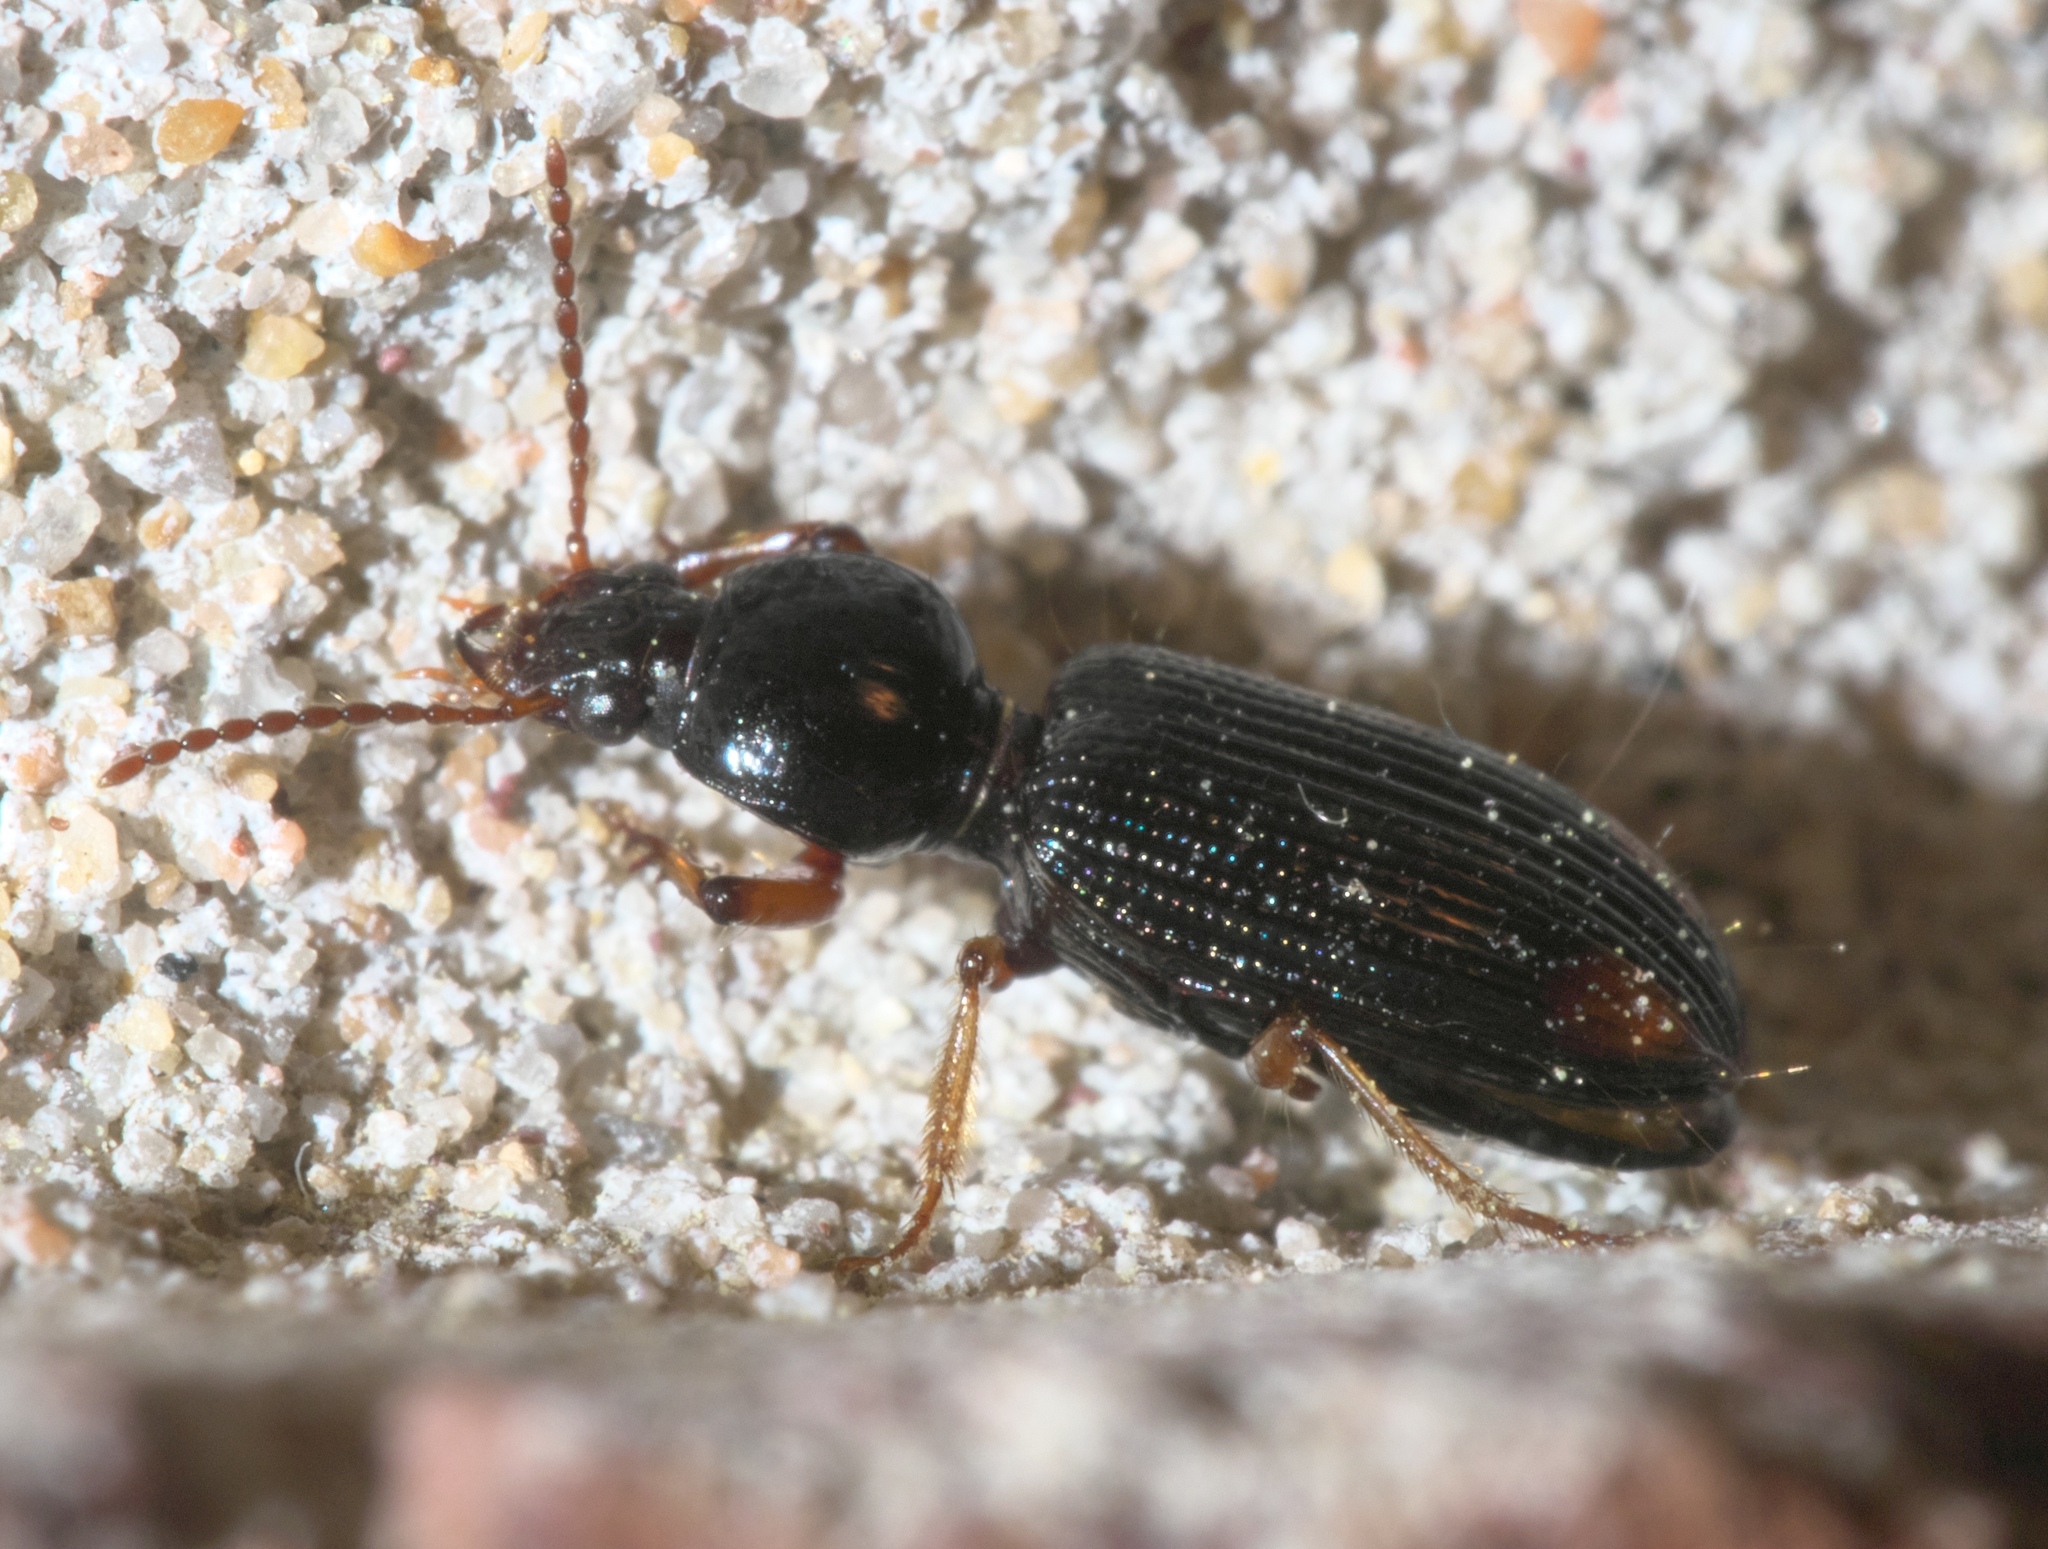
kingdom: Animalia
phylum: Arthropoda
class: Insecta
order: Coleoptera
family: Carabidae
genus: Aspidoglossa
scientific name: Aspidoglossa subangulata
